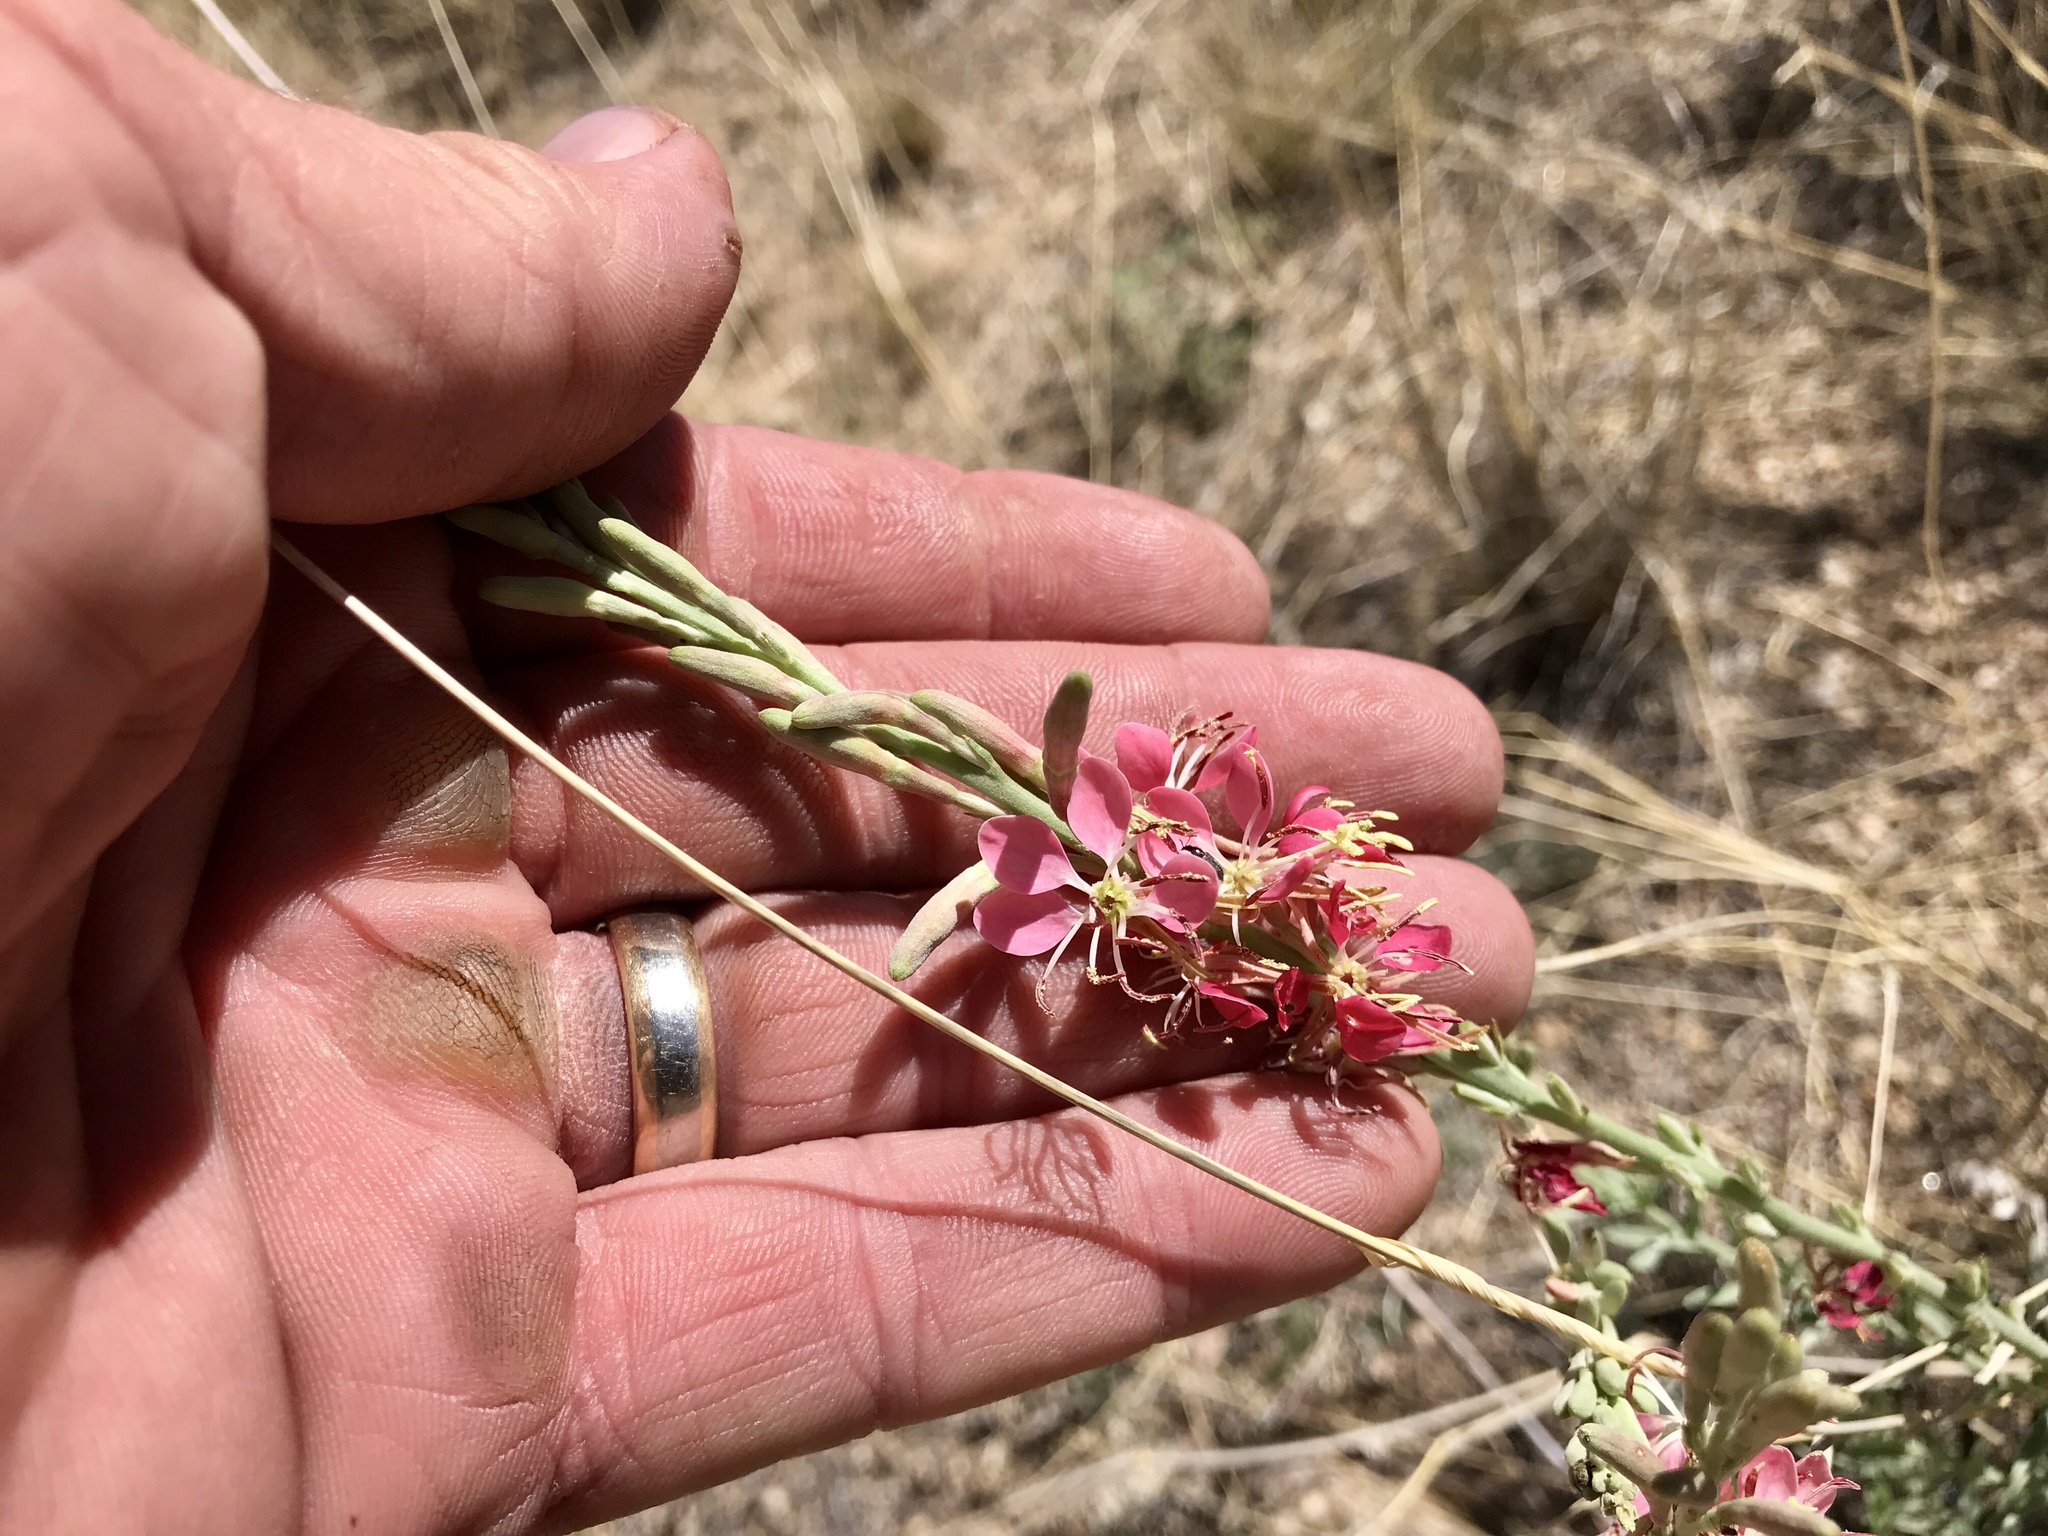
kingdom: Plantae
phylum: Tracheophyta
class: Magnoliopsida
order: Myrtales
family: Onagraceae
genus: Oenothera
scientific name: Oenothera suffrutescens
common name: Scarlet beeblossom
